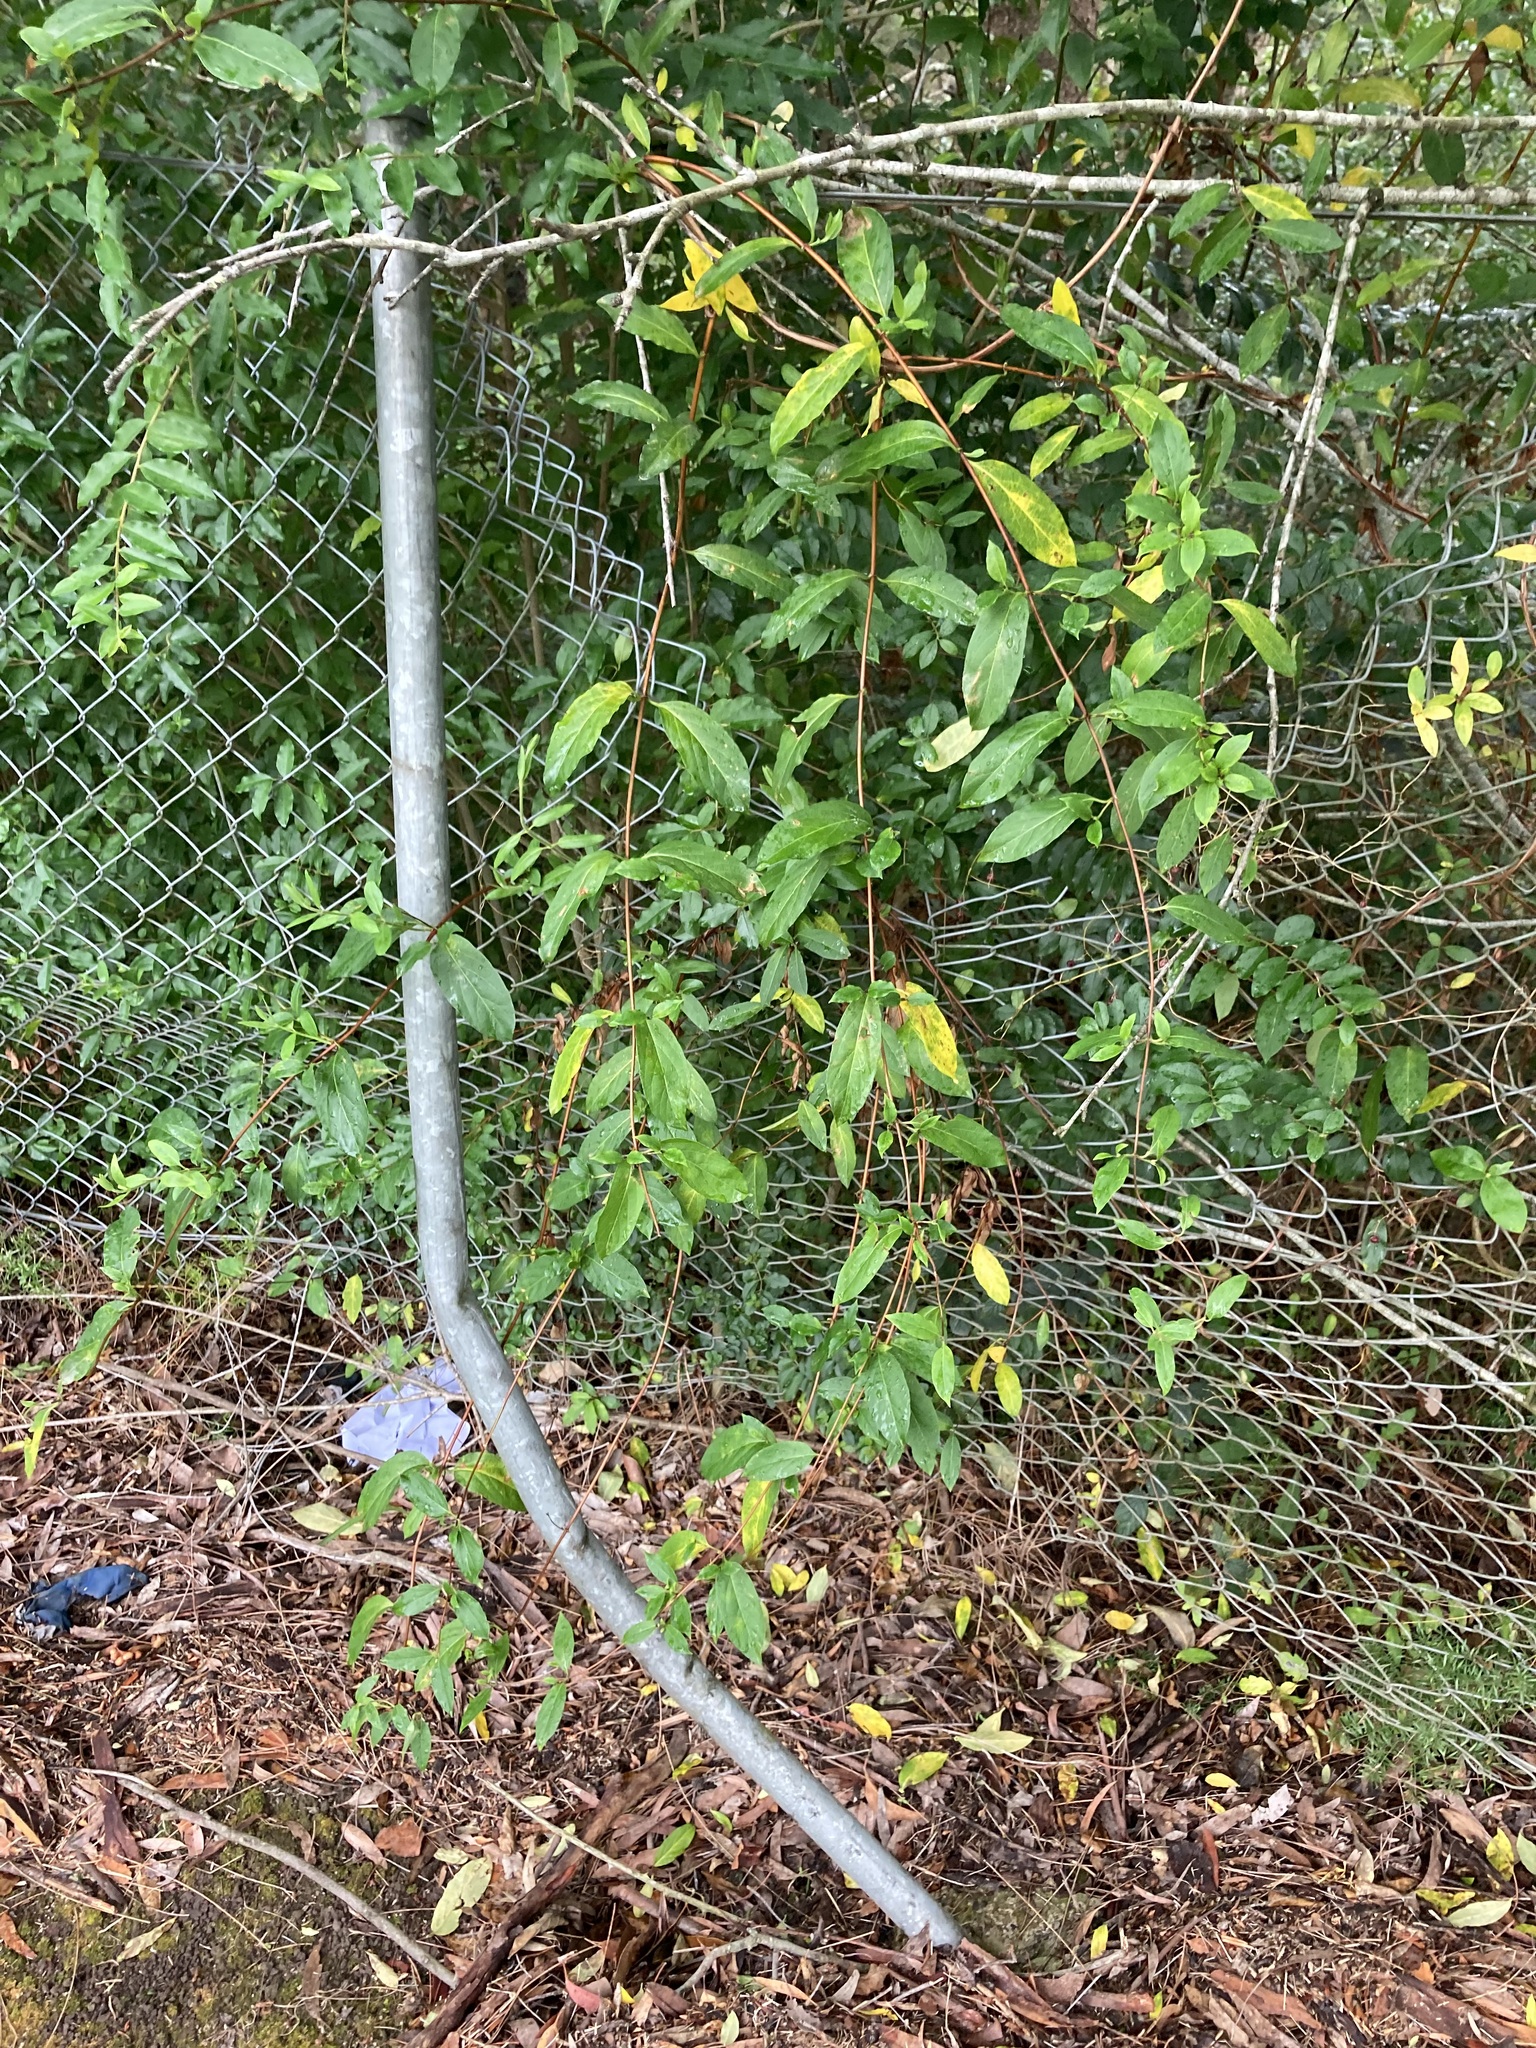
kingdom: Plantae
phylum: Tracheophyta
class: Magnoliopsida
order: Dipsacales
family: Caprifoliaceae
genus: Lonicera
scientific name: Lonicera japonica
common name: Japanese honeysuckle
